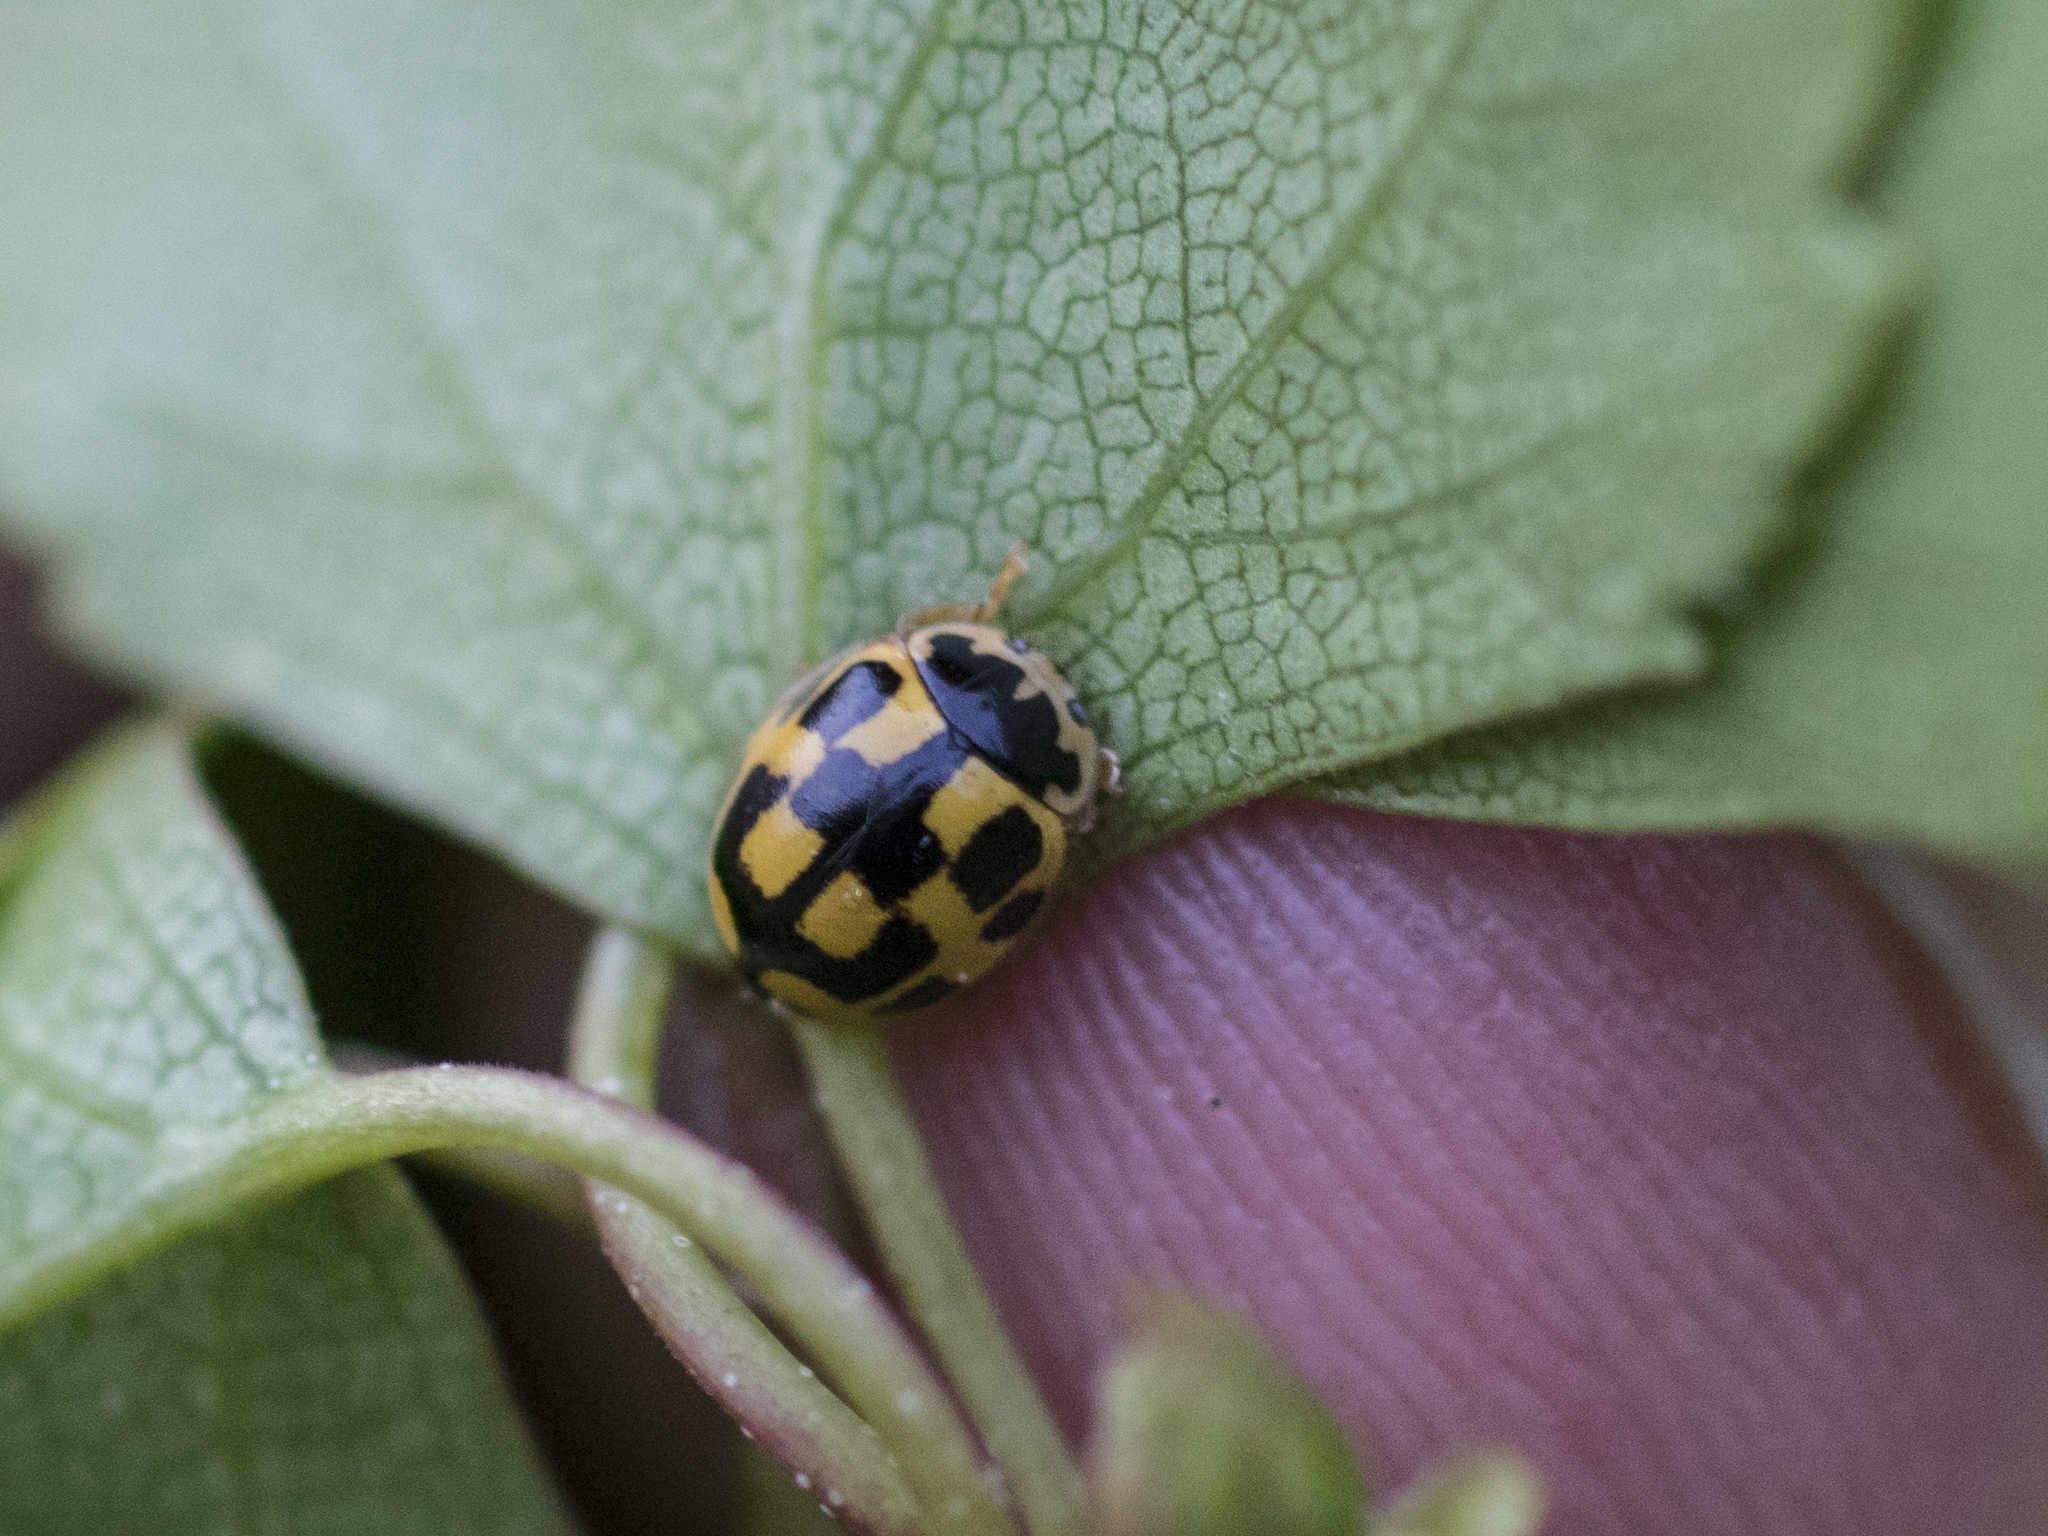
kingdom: Animalia
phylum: Arthropoda
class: Insecta
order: Coleoptera
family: Coccinellidae
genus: Propylaea
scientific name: Propylaea quatuordecimpunctata
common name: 14-spotted ladybird beetle
